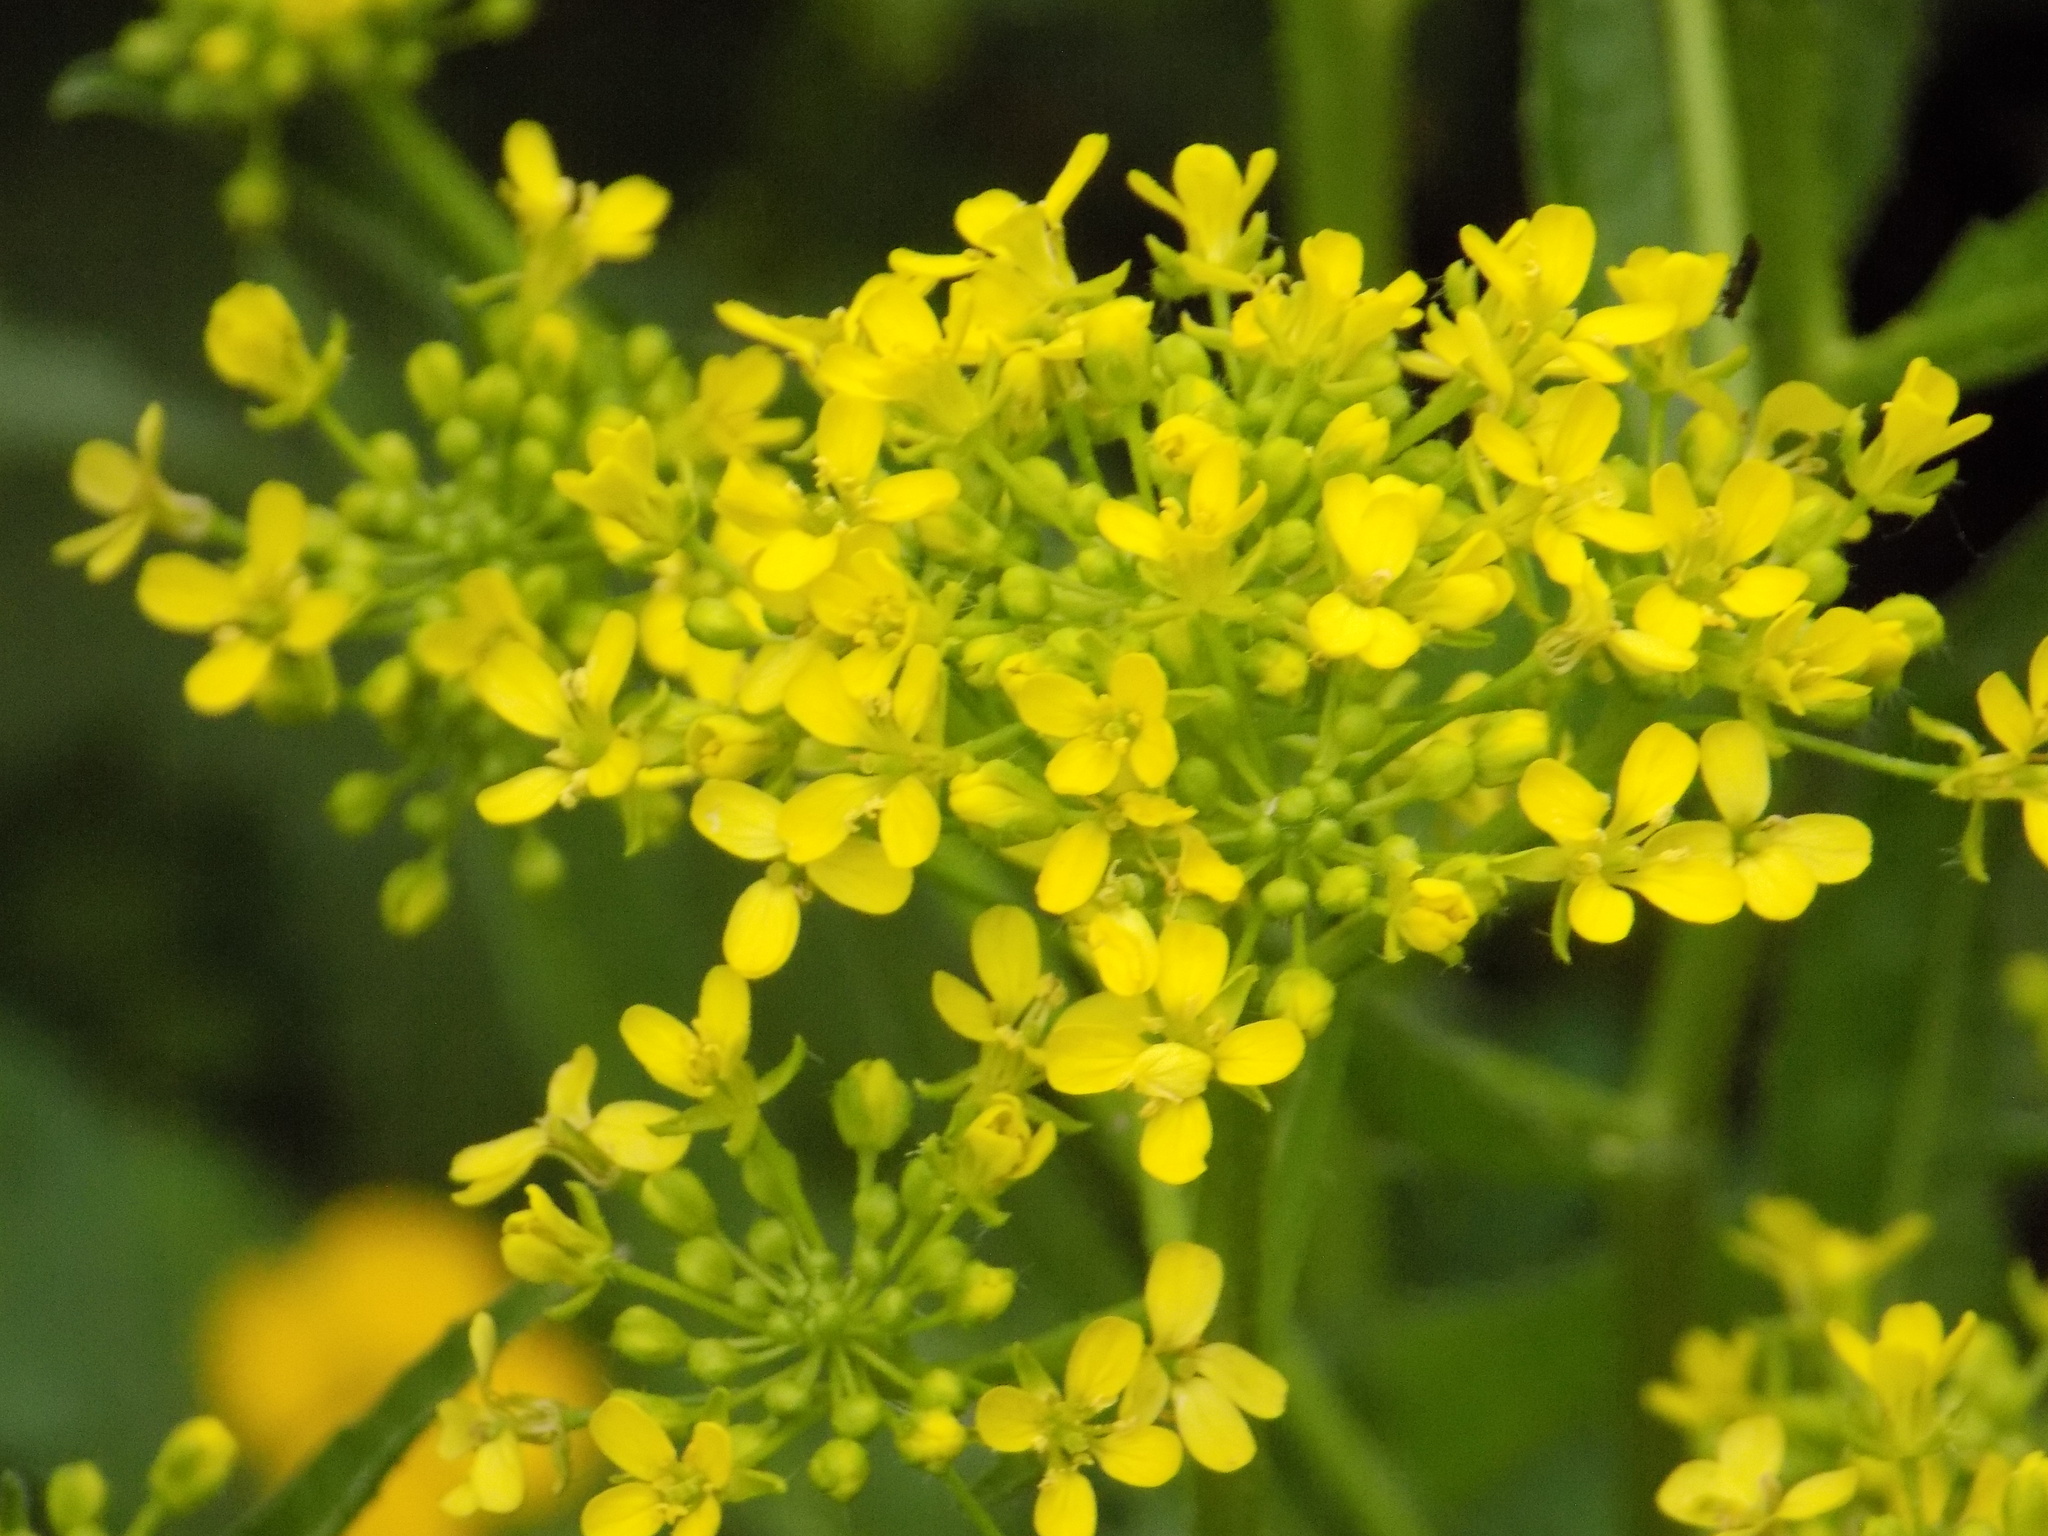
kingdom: Plantae
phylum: Tracheophyta
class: Magnoliopsida
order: Brassicales
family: Brassicaceae
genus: Bunias
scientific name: Bunias orientalis
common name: Warty-cabbage
